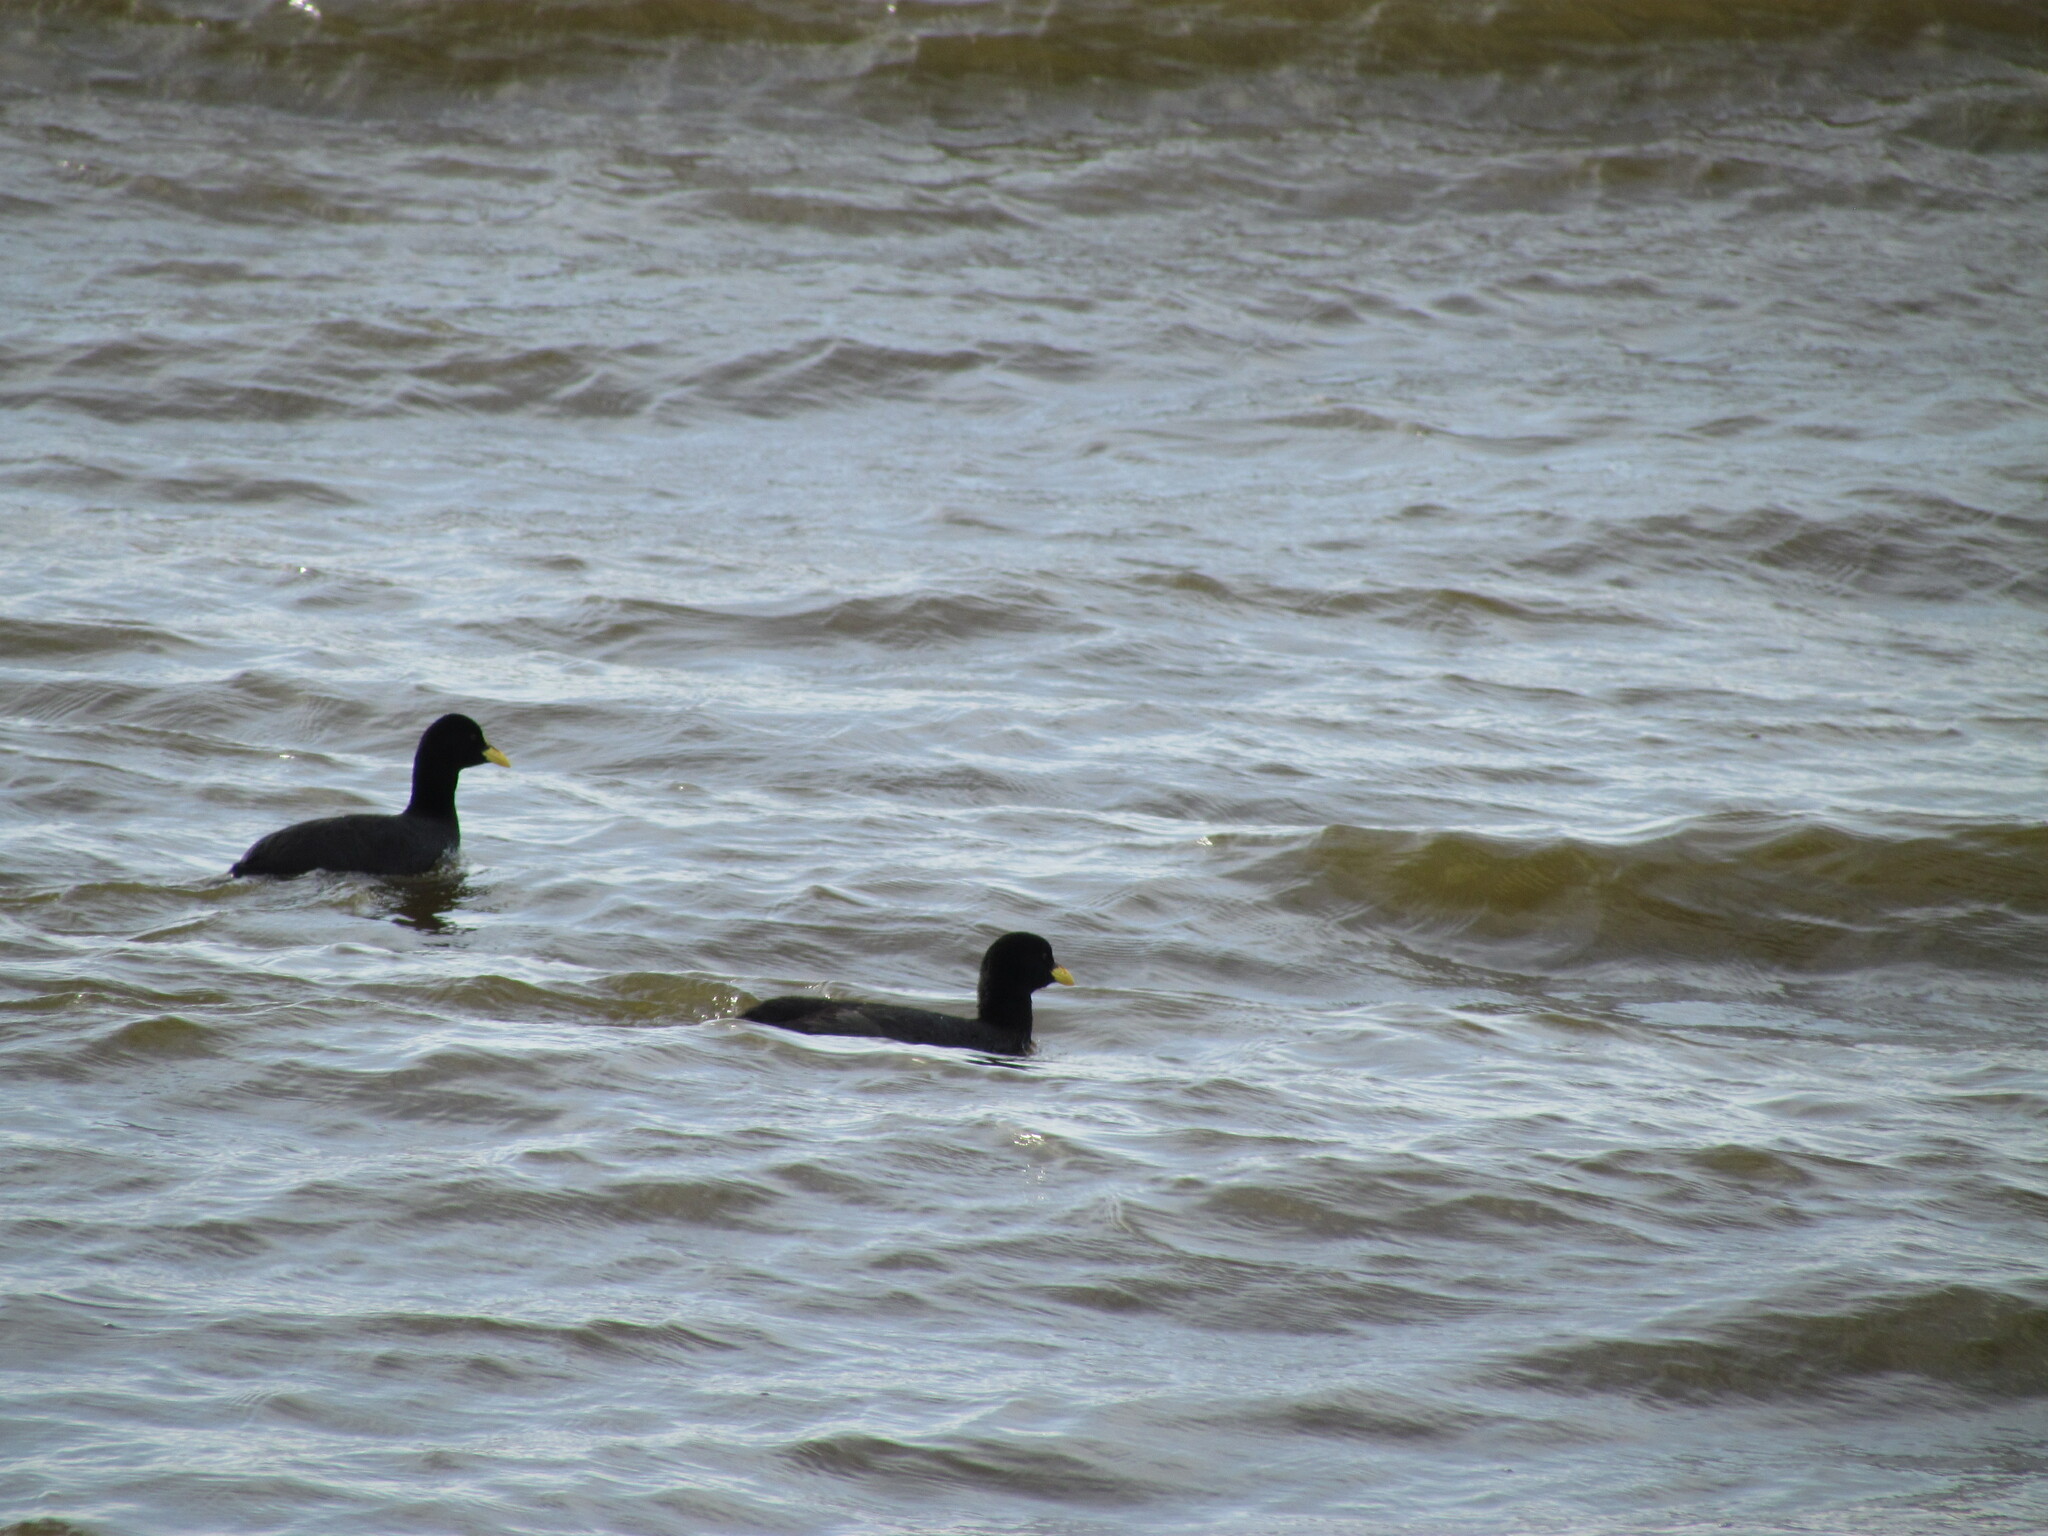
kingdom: Animalia
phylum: Chordata
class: Aves
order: Gruiformes
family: Rallidae
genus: Fulica
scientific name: Fulica armillata
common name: Red-gartered coot
